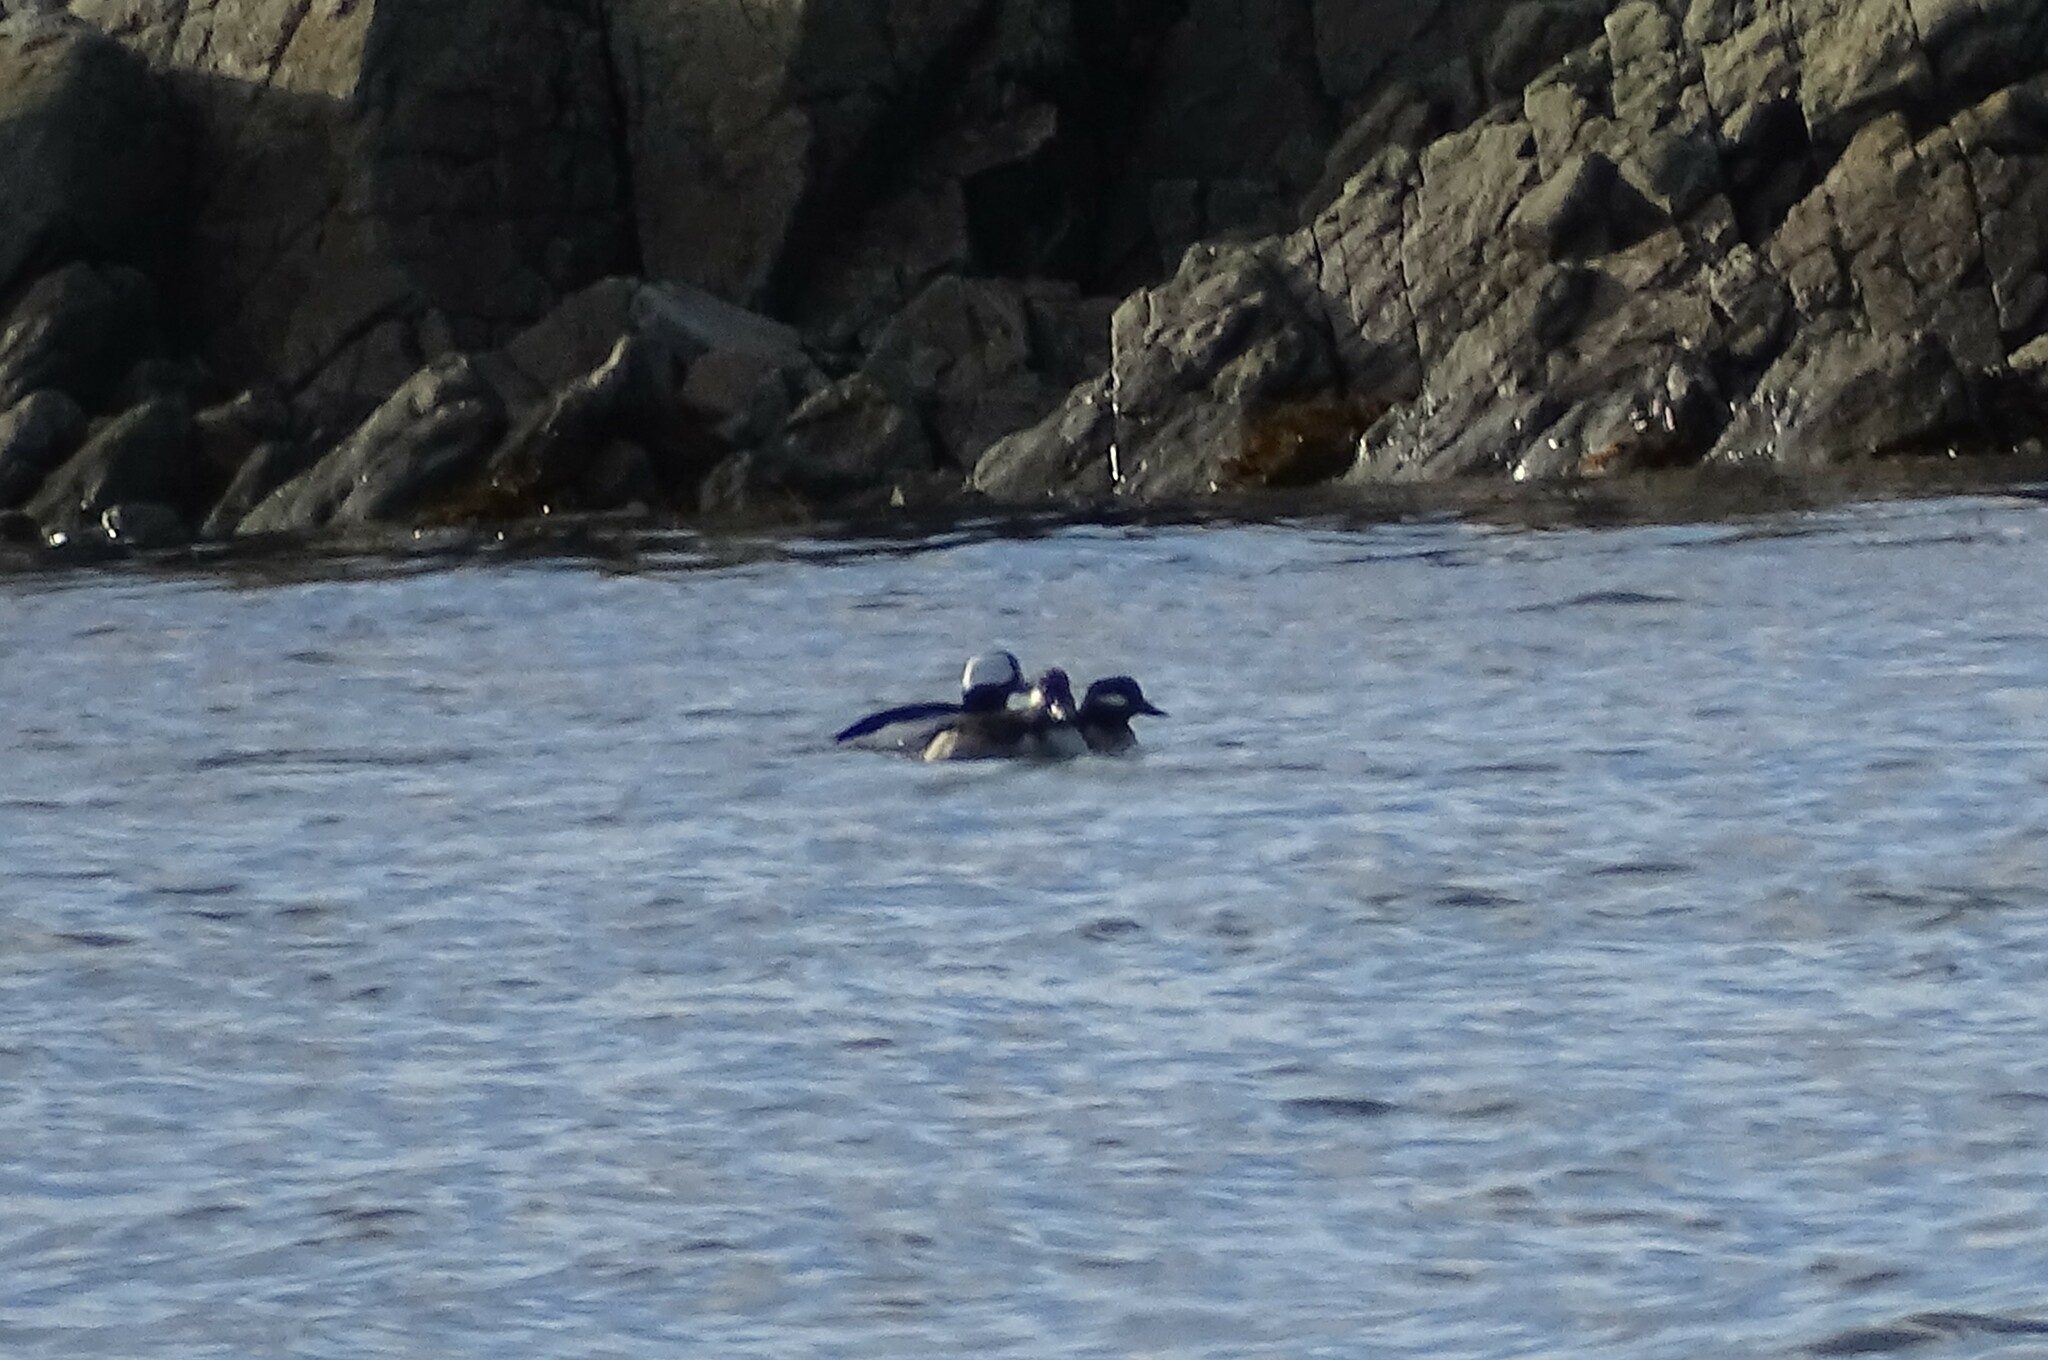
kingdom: Animalia
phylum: Chordata
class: Aves
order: Anseriformes
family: Anatidae
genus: Bucephala
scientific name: Bucephala albeola
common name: Bufflehead
